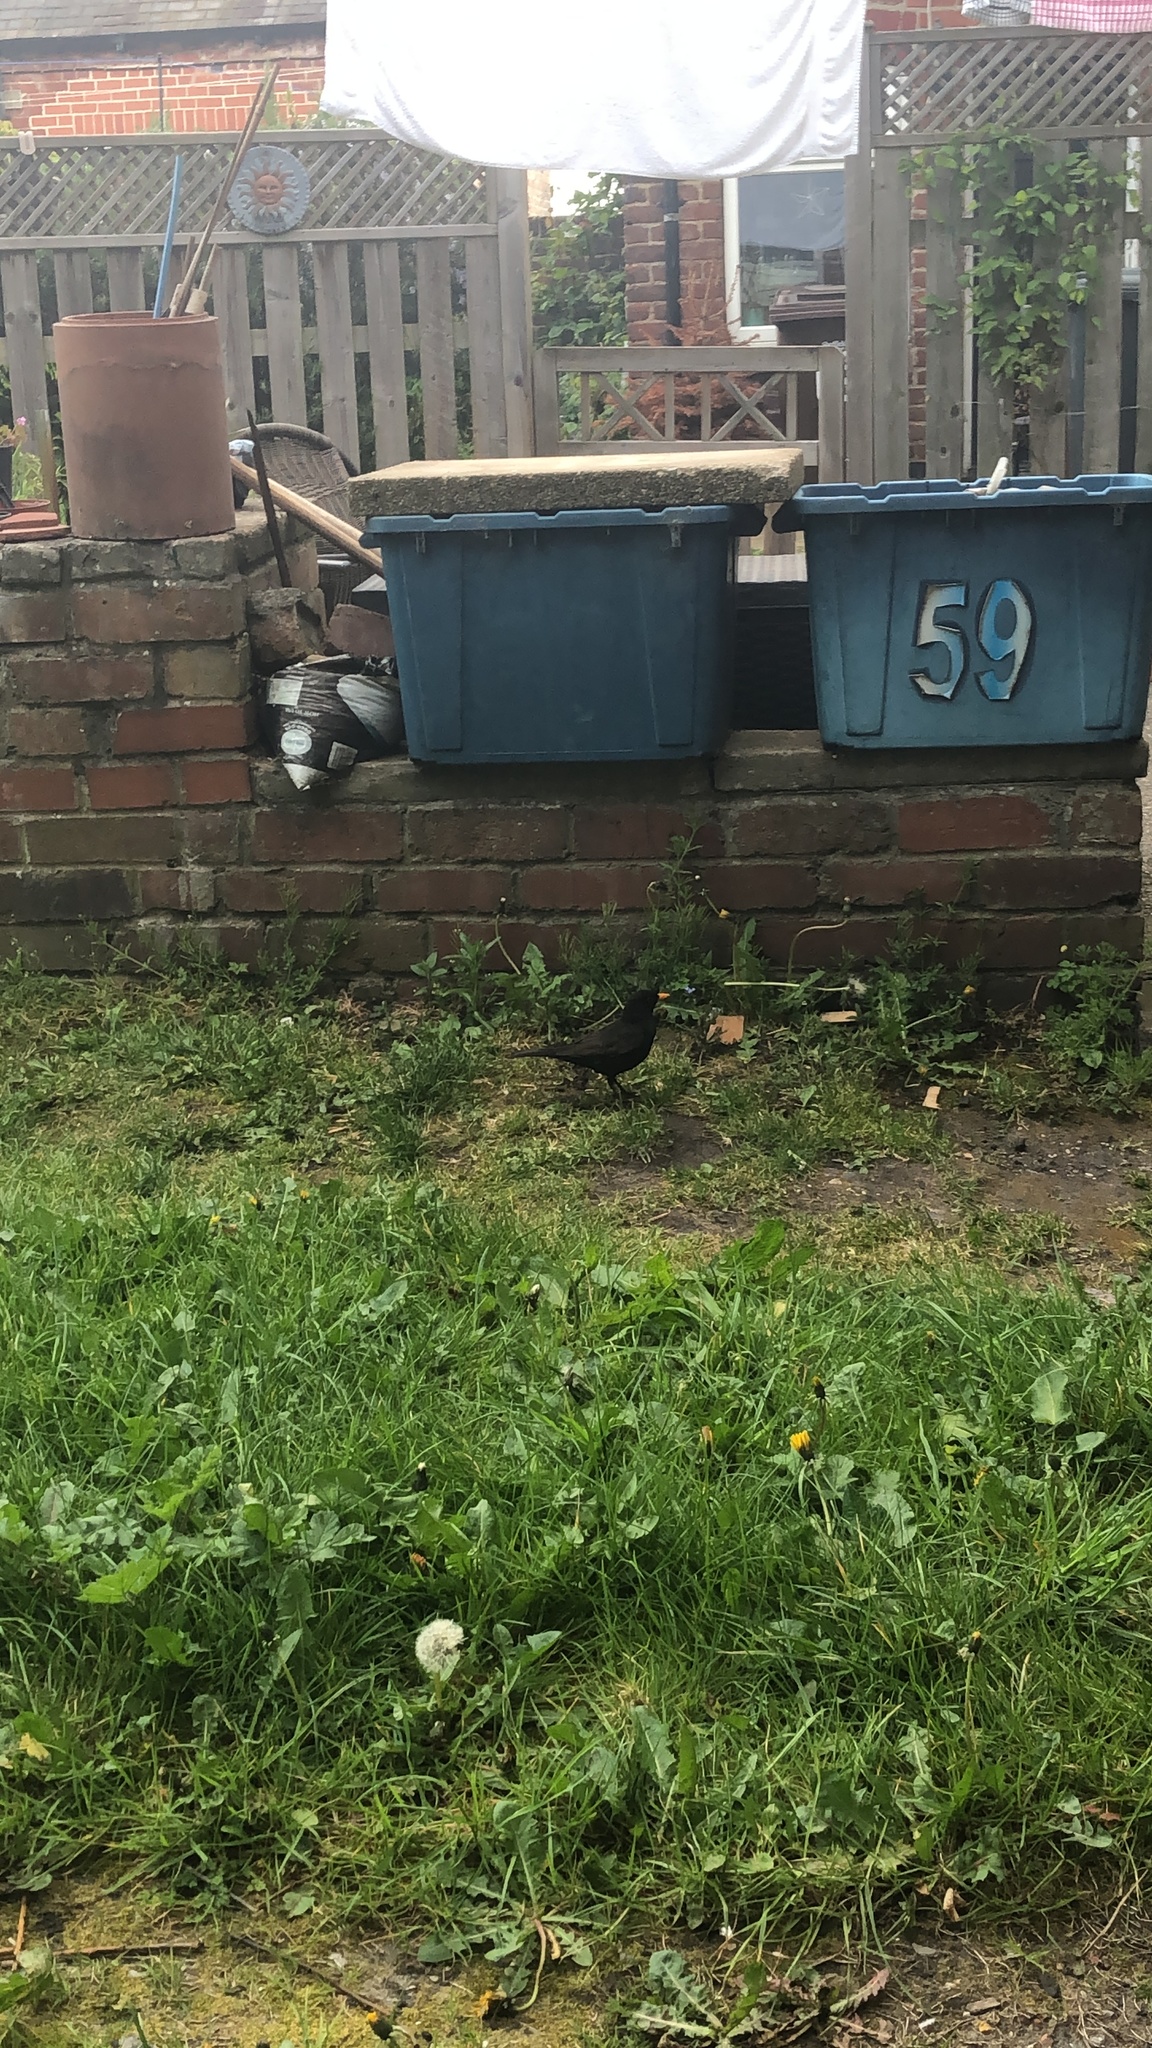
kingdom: Animalia
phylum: Chordata
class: Aves
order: Passeriformes
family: Turdidae
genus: Turdus
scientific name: Turdus merula
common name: Common blackbird
